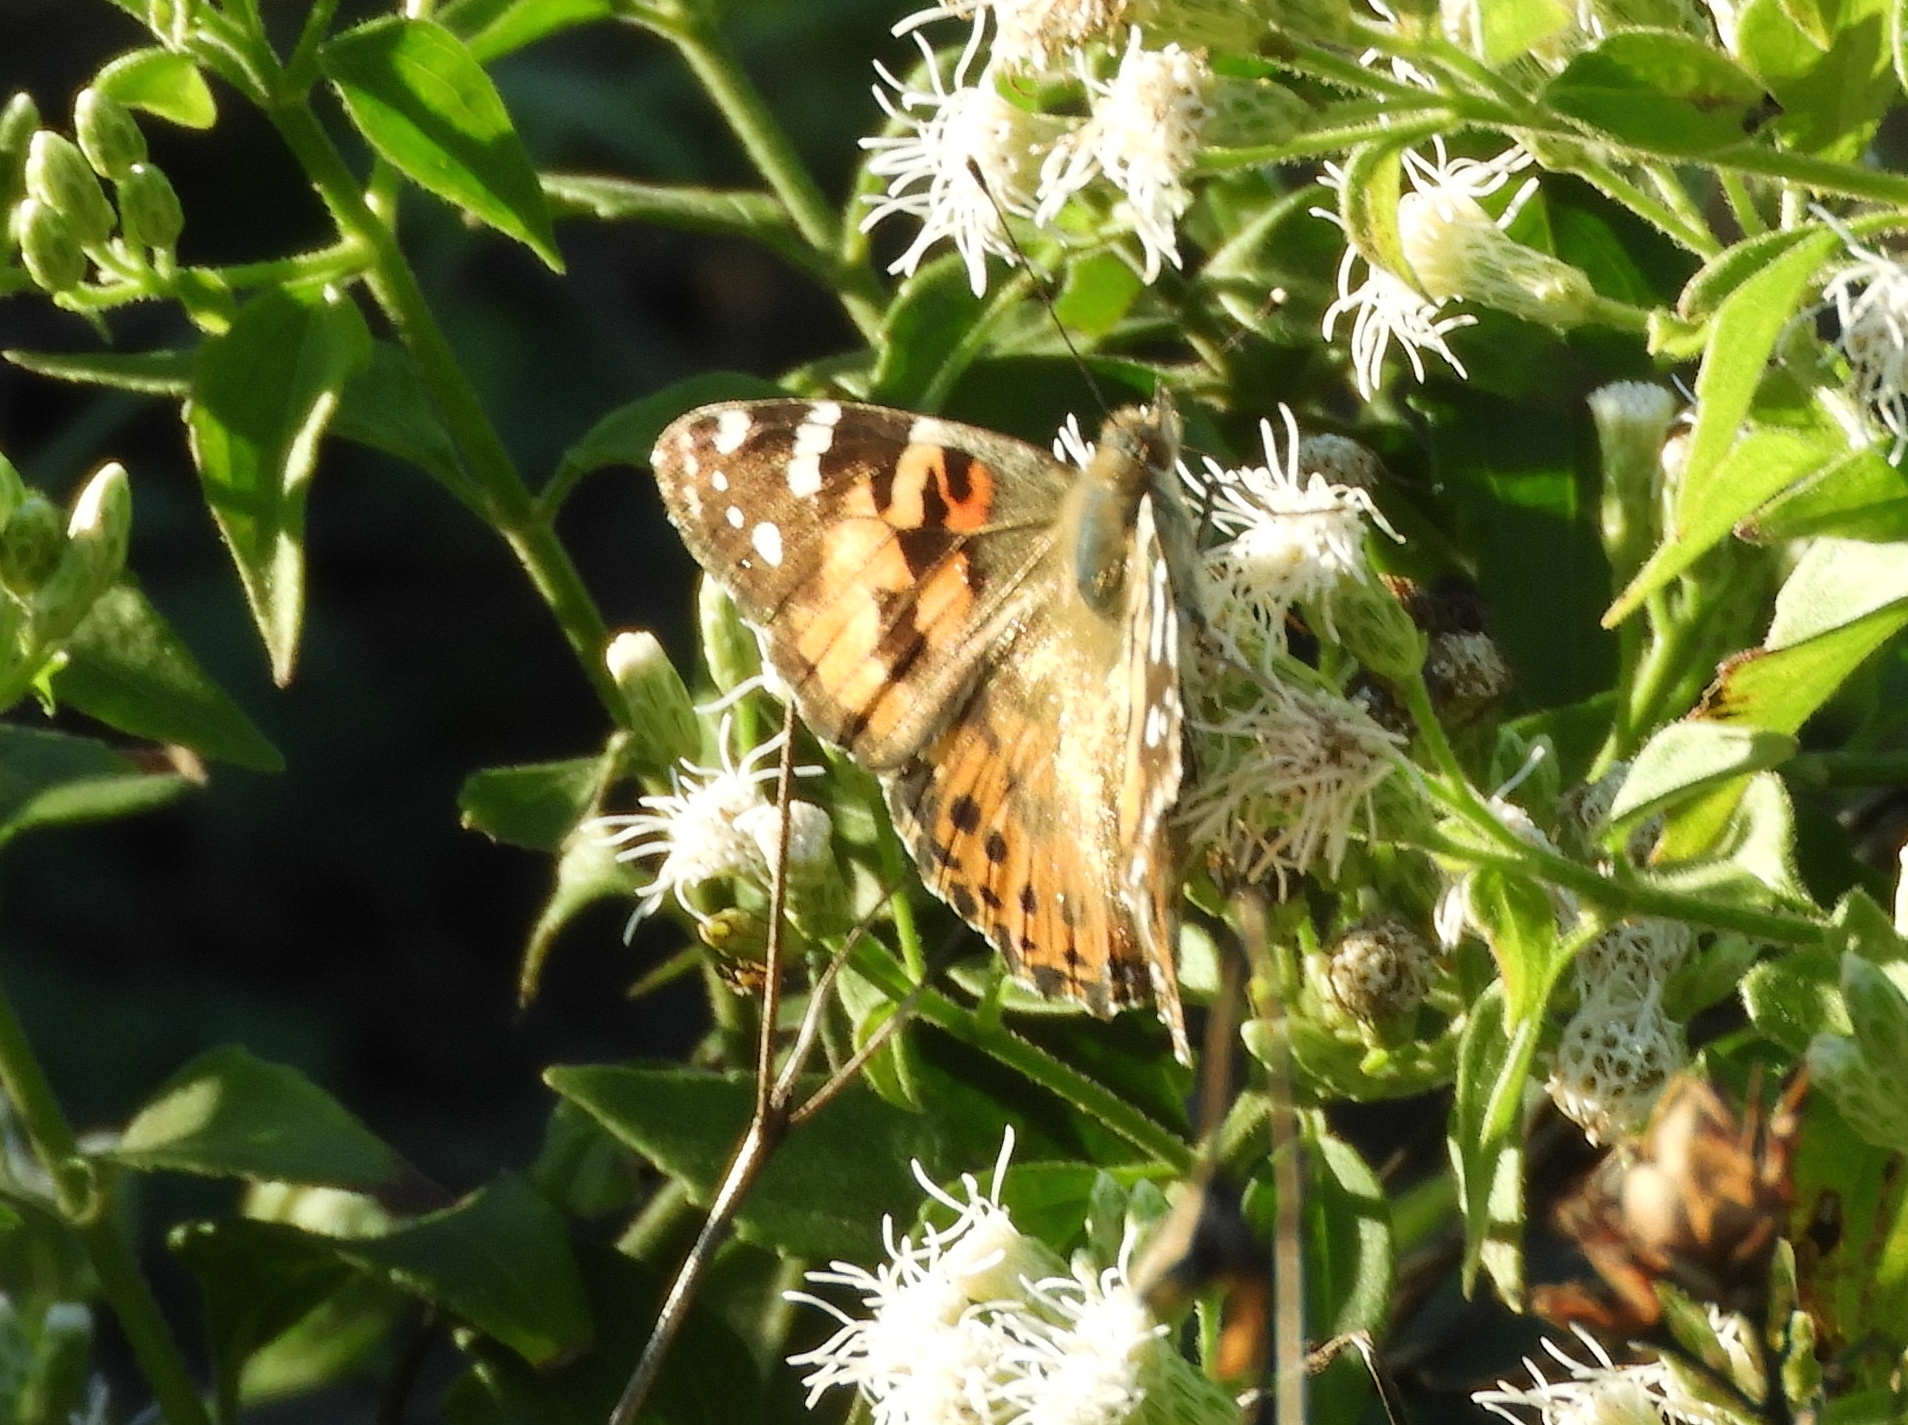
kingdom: Animalia
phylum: Arthropoda
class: Insecta
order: Lepidoptera
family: Nymphalidae
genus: Vanessa
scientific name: Vanessa cardui
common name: Painted lady
